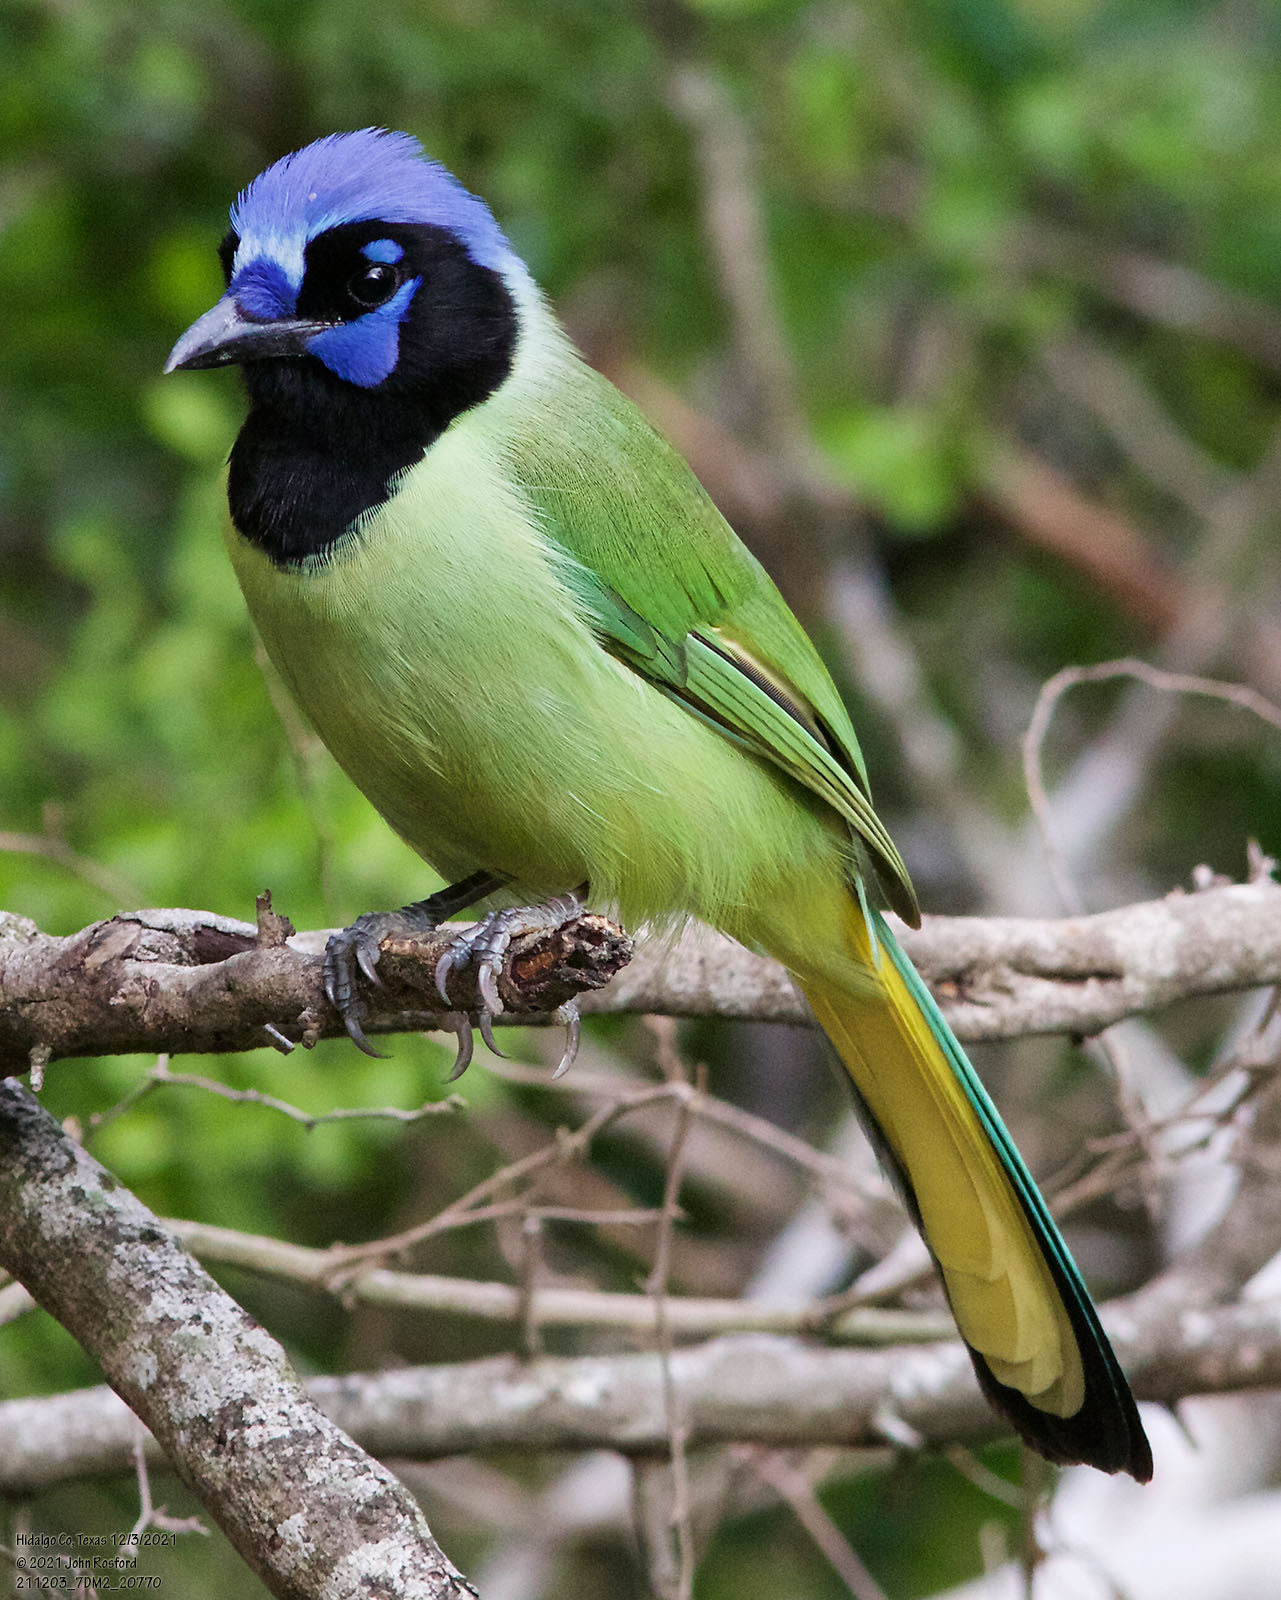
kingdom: Animalia
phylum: Chordata
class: Aves
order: Passeriformes
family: Corvidae
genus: Cyanocorax
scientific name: Cyanocorax yncas
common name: Green jay
